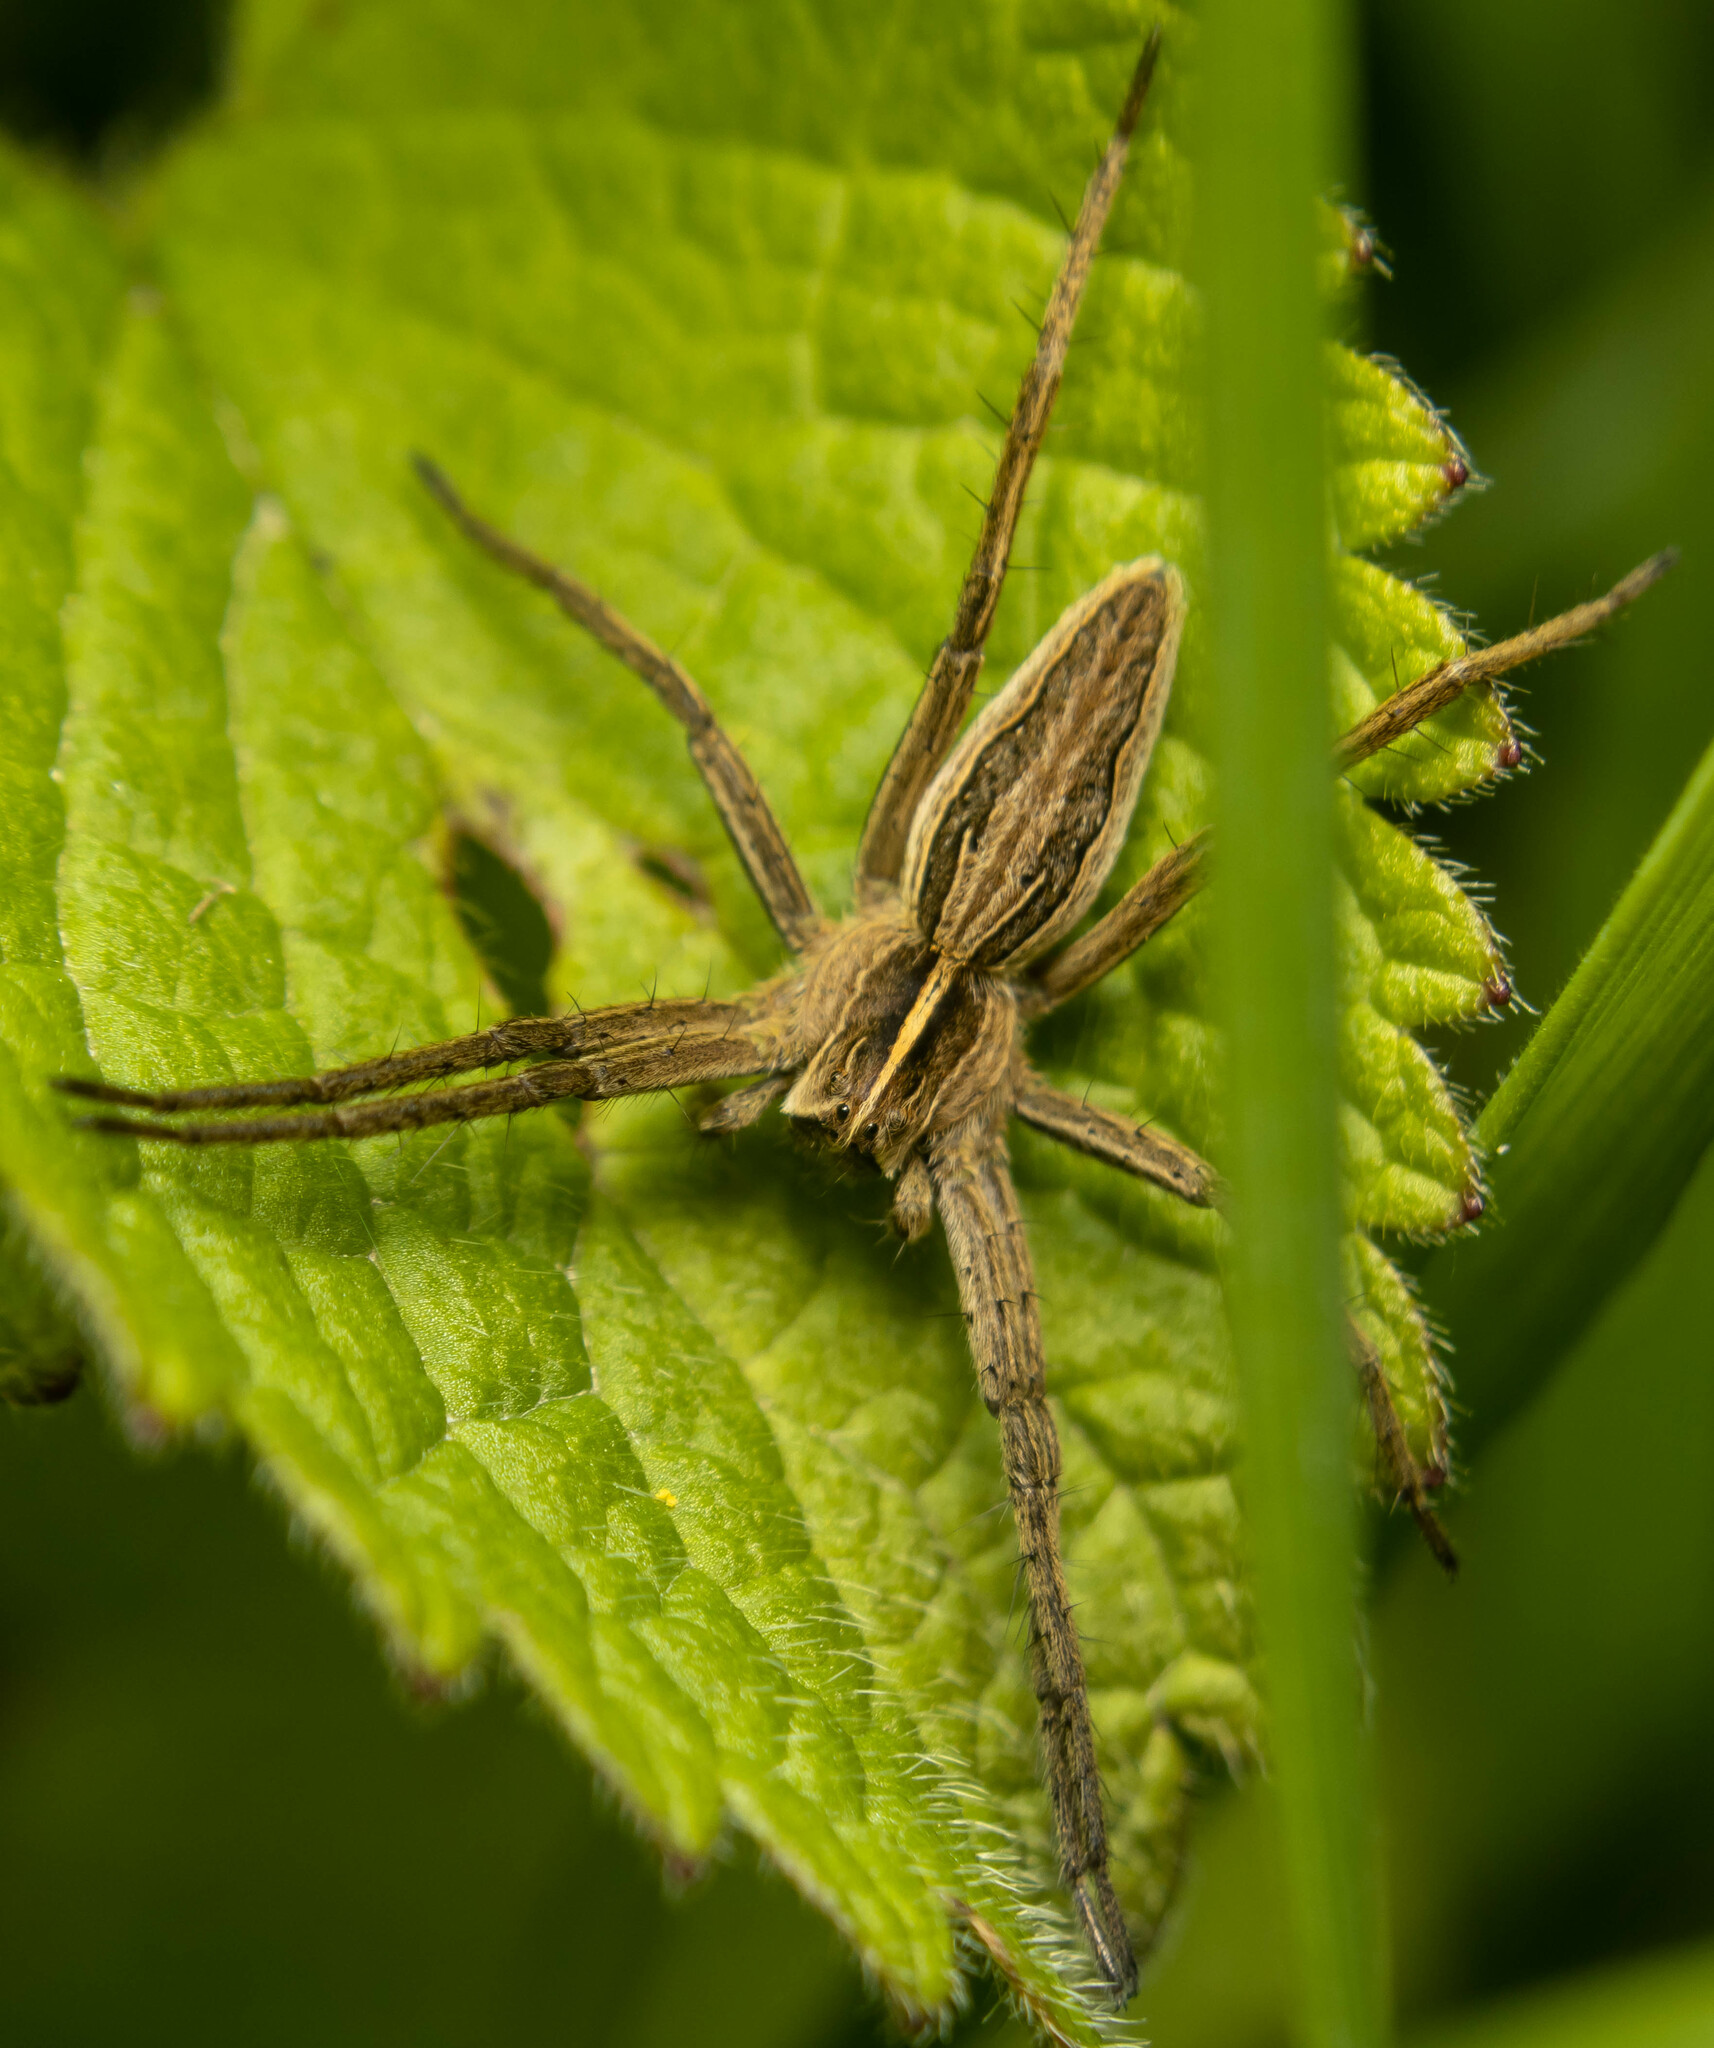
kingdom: Animalia
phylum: Arthropoda
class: Arachnida
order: Araneae
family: Pisauridae
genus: Pisaura
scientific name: Pisaura mirabilis
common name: Tent spider
